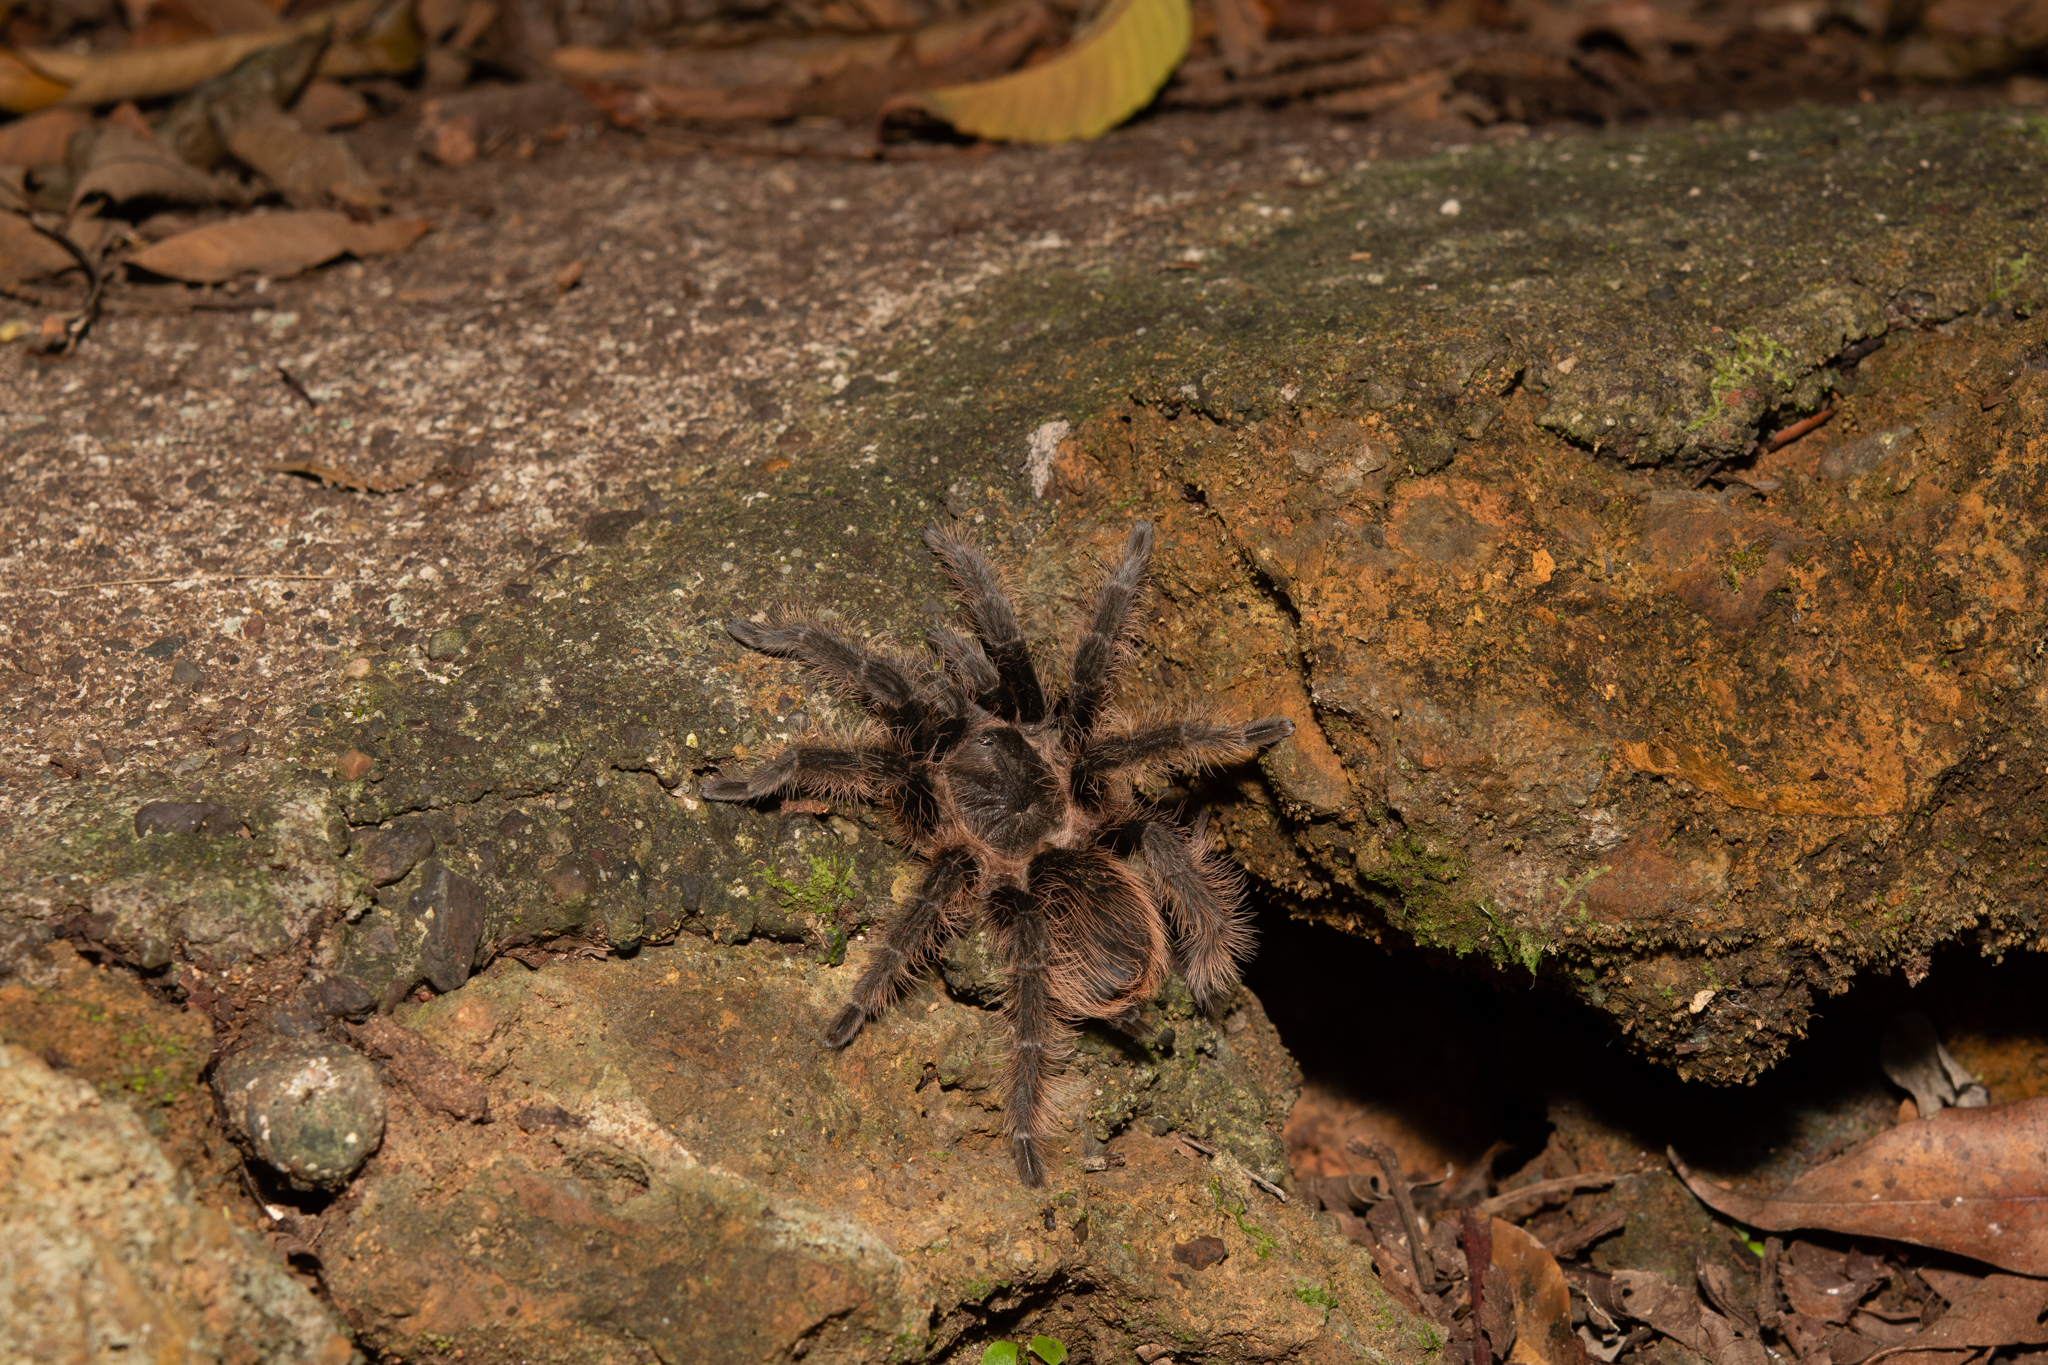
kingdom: Animalia
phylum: Arthropoda
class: Arachnida
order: Araneae
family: Theraphosidae
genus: Tliltocatl
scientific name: Tliltocatl albopilosus
